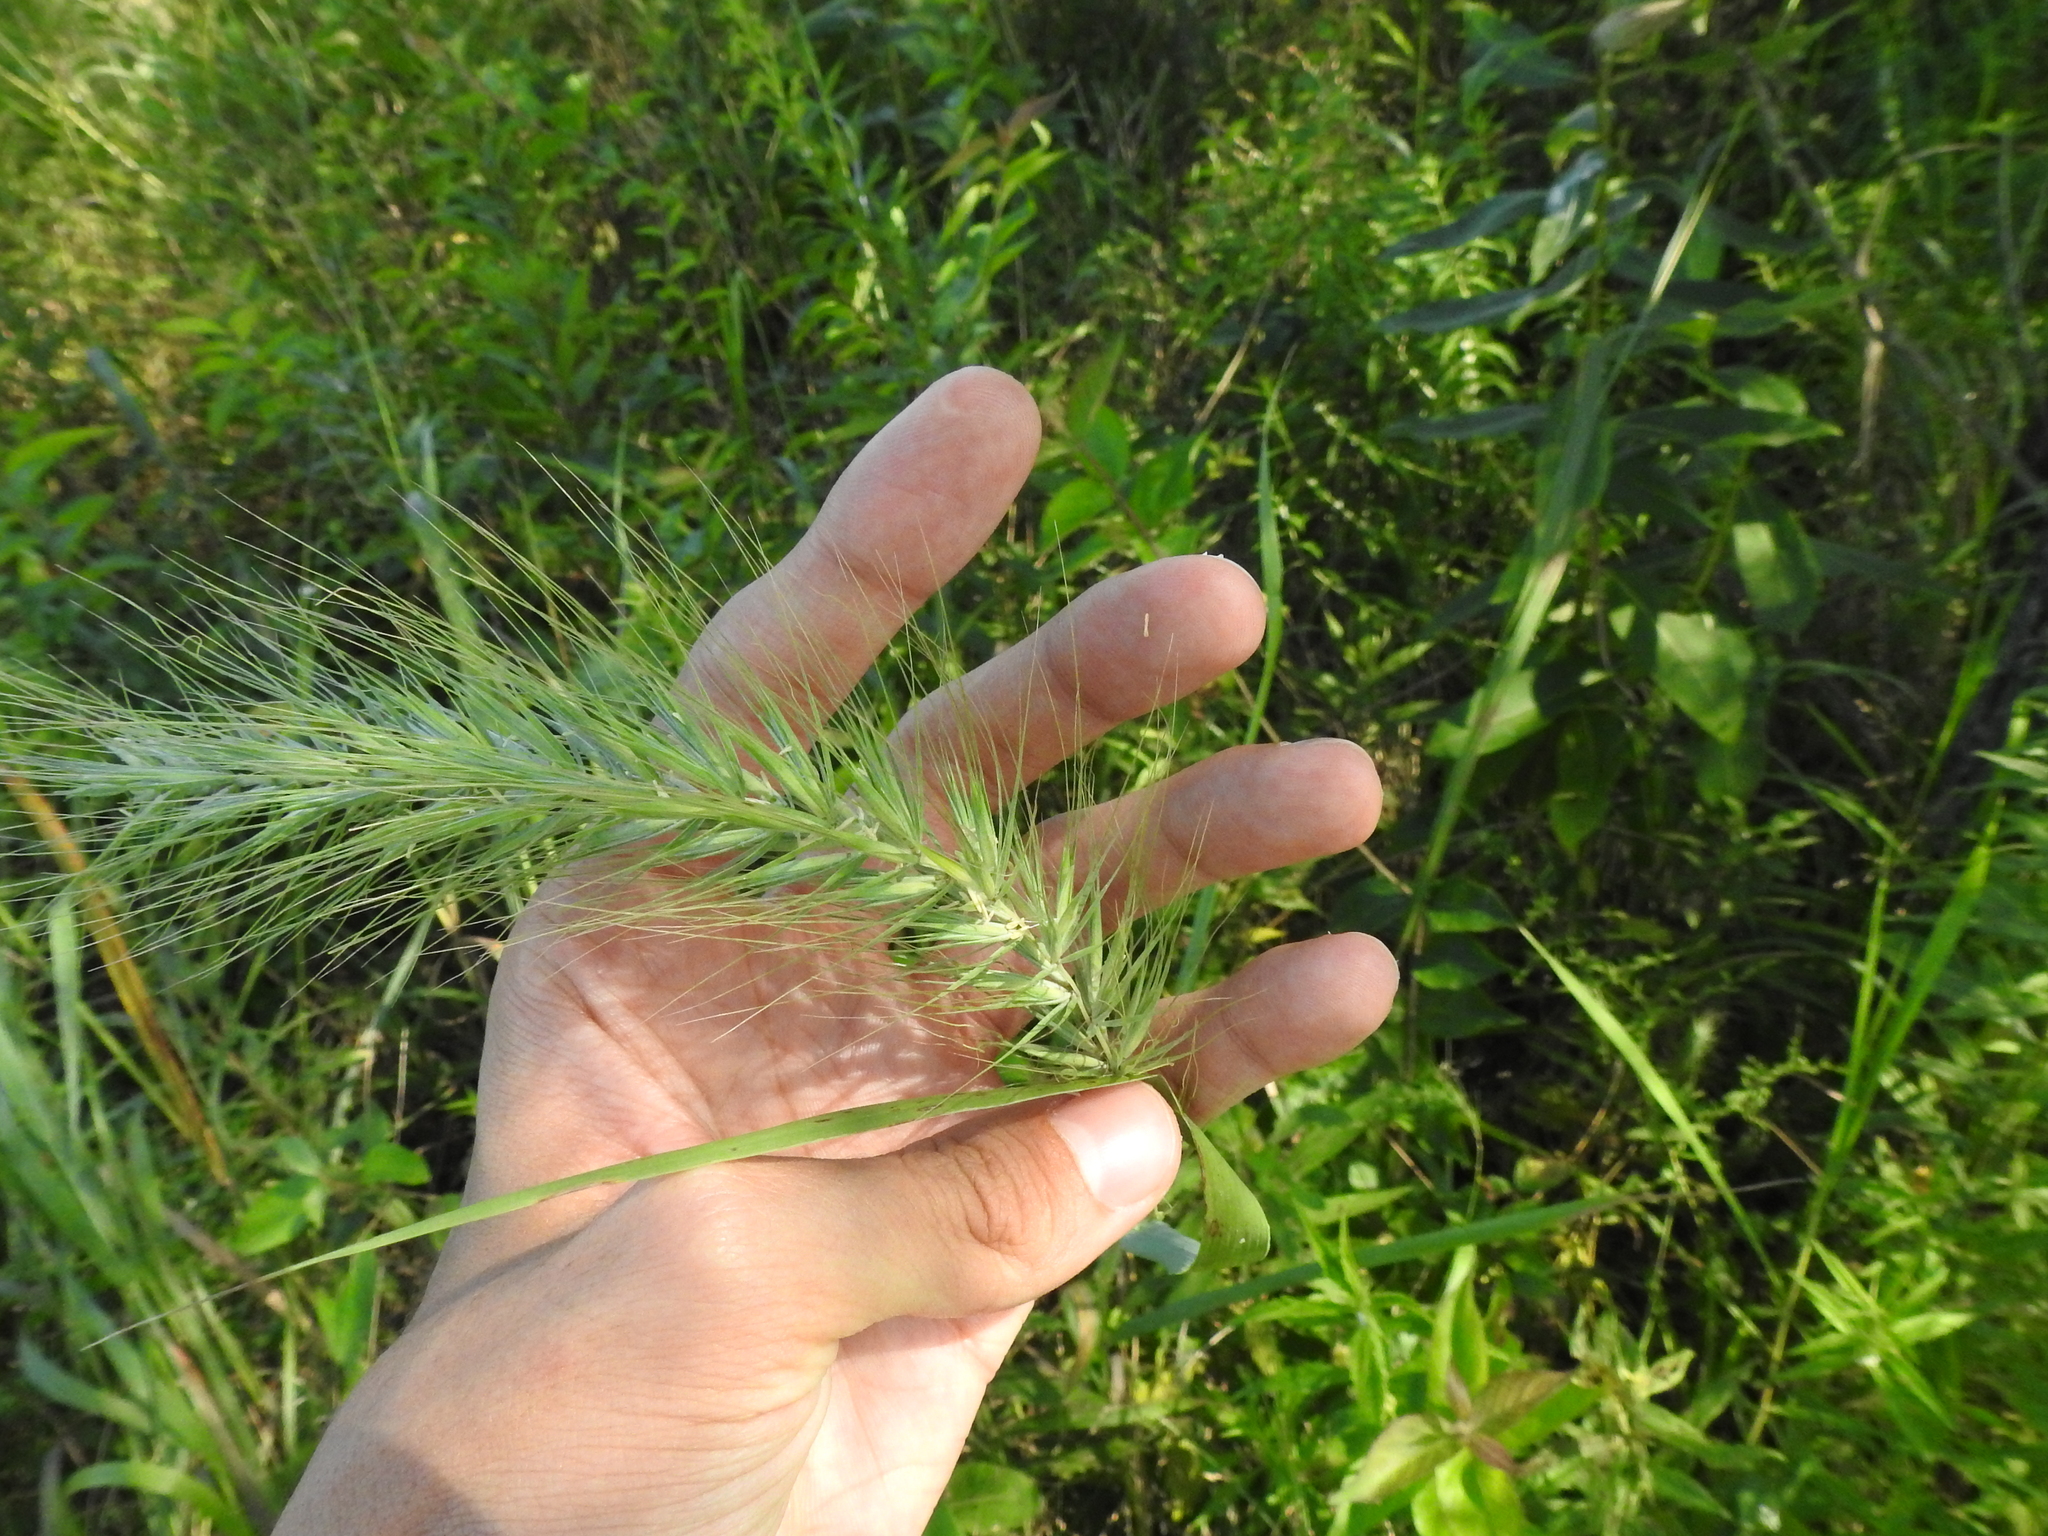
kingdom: Plantae
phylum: Tracheophyta
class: Liliopsida
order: Poales
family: Poaceae
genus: Elymus
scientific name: Elymus canadensis
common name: Canada wild rye
